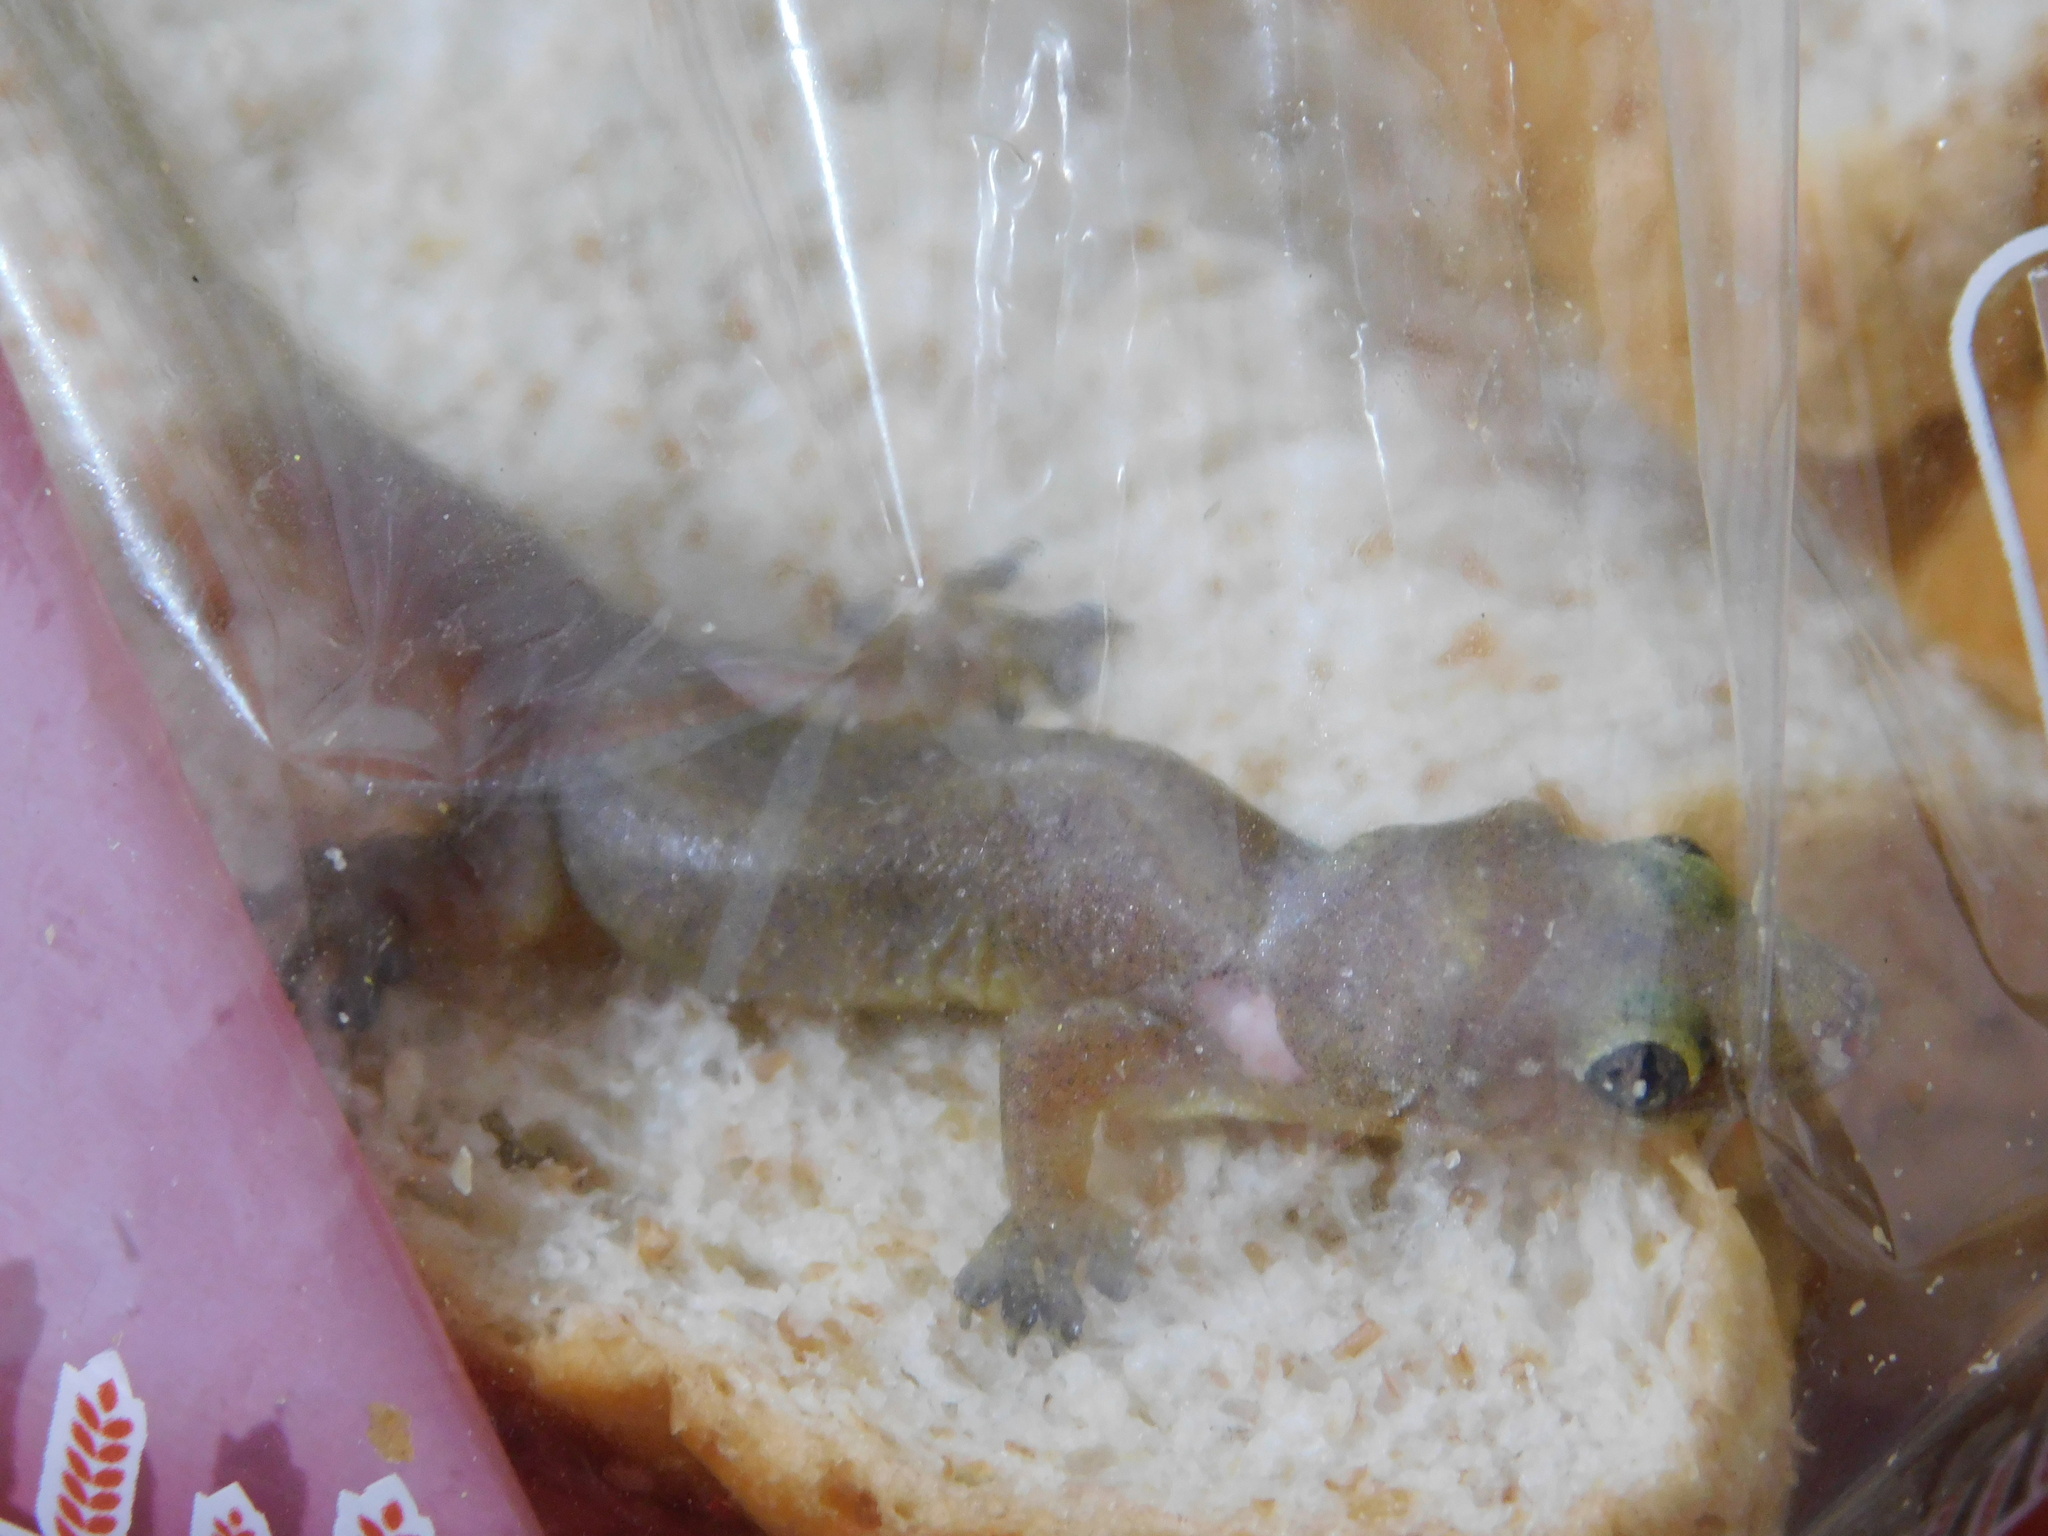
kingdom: Animalia
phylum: Chordata
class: Squamata
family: Gekkonidae
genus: Gehyra
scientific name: Gehyra mutilata
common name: Stump-toed gecko
